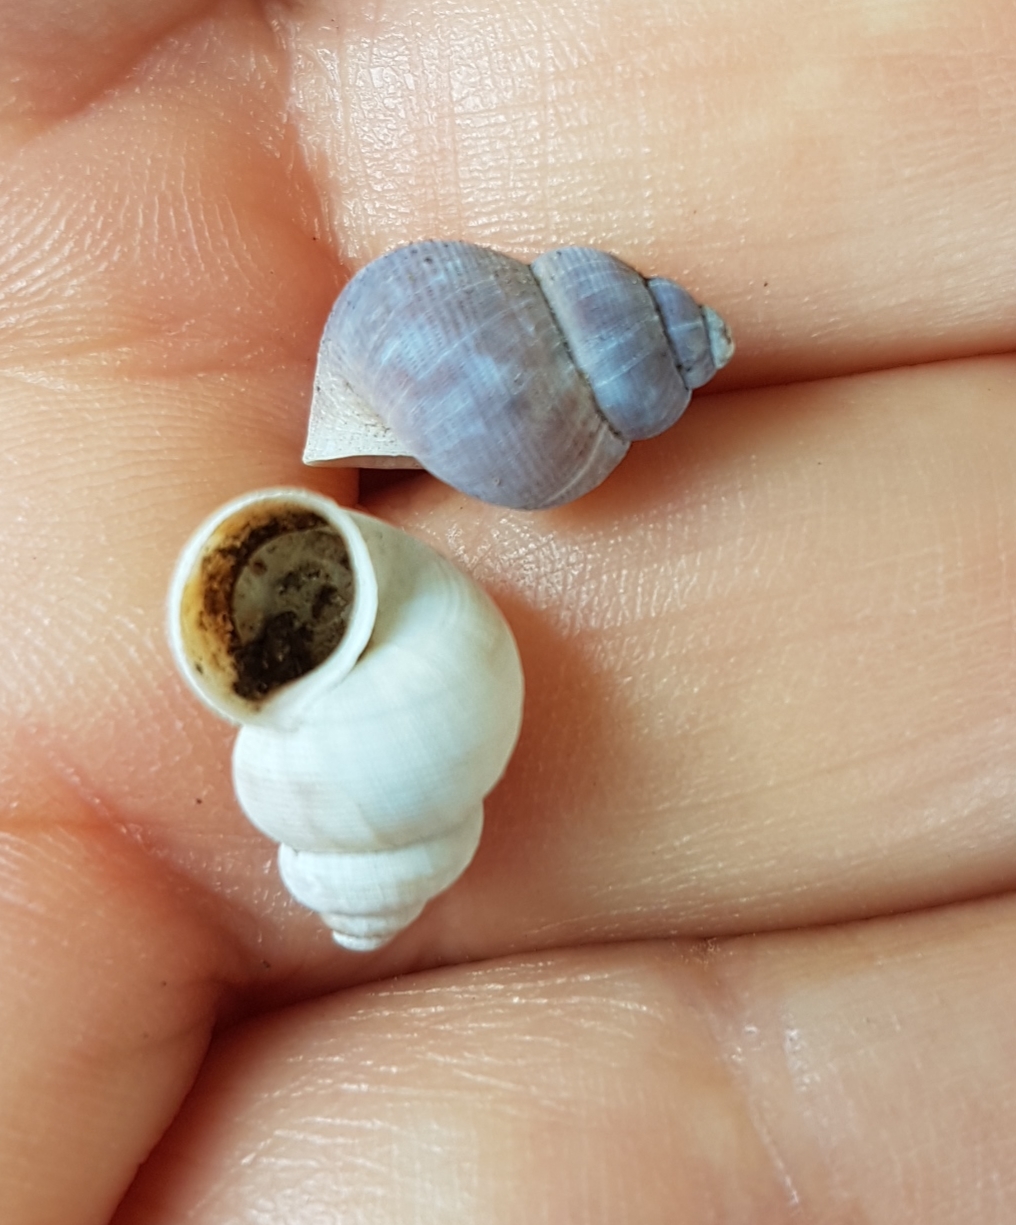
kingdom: Animalia
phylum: Mollusca
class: Gastropoda
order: Littorinimorpha
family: Pomatiidae
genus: Pomatias
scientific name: Pomatias elegans
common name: Red-mouthed snail
